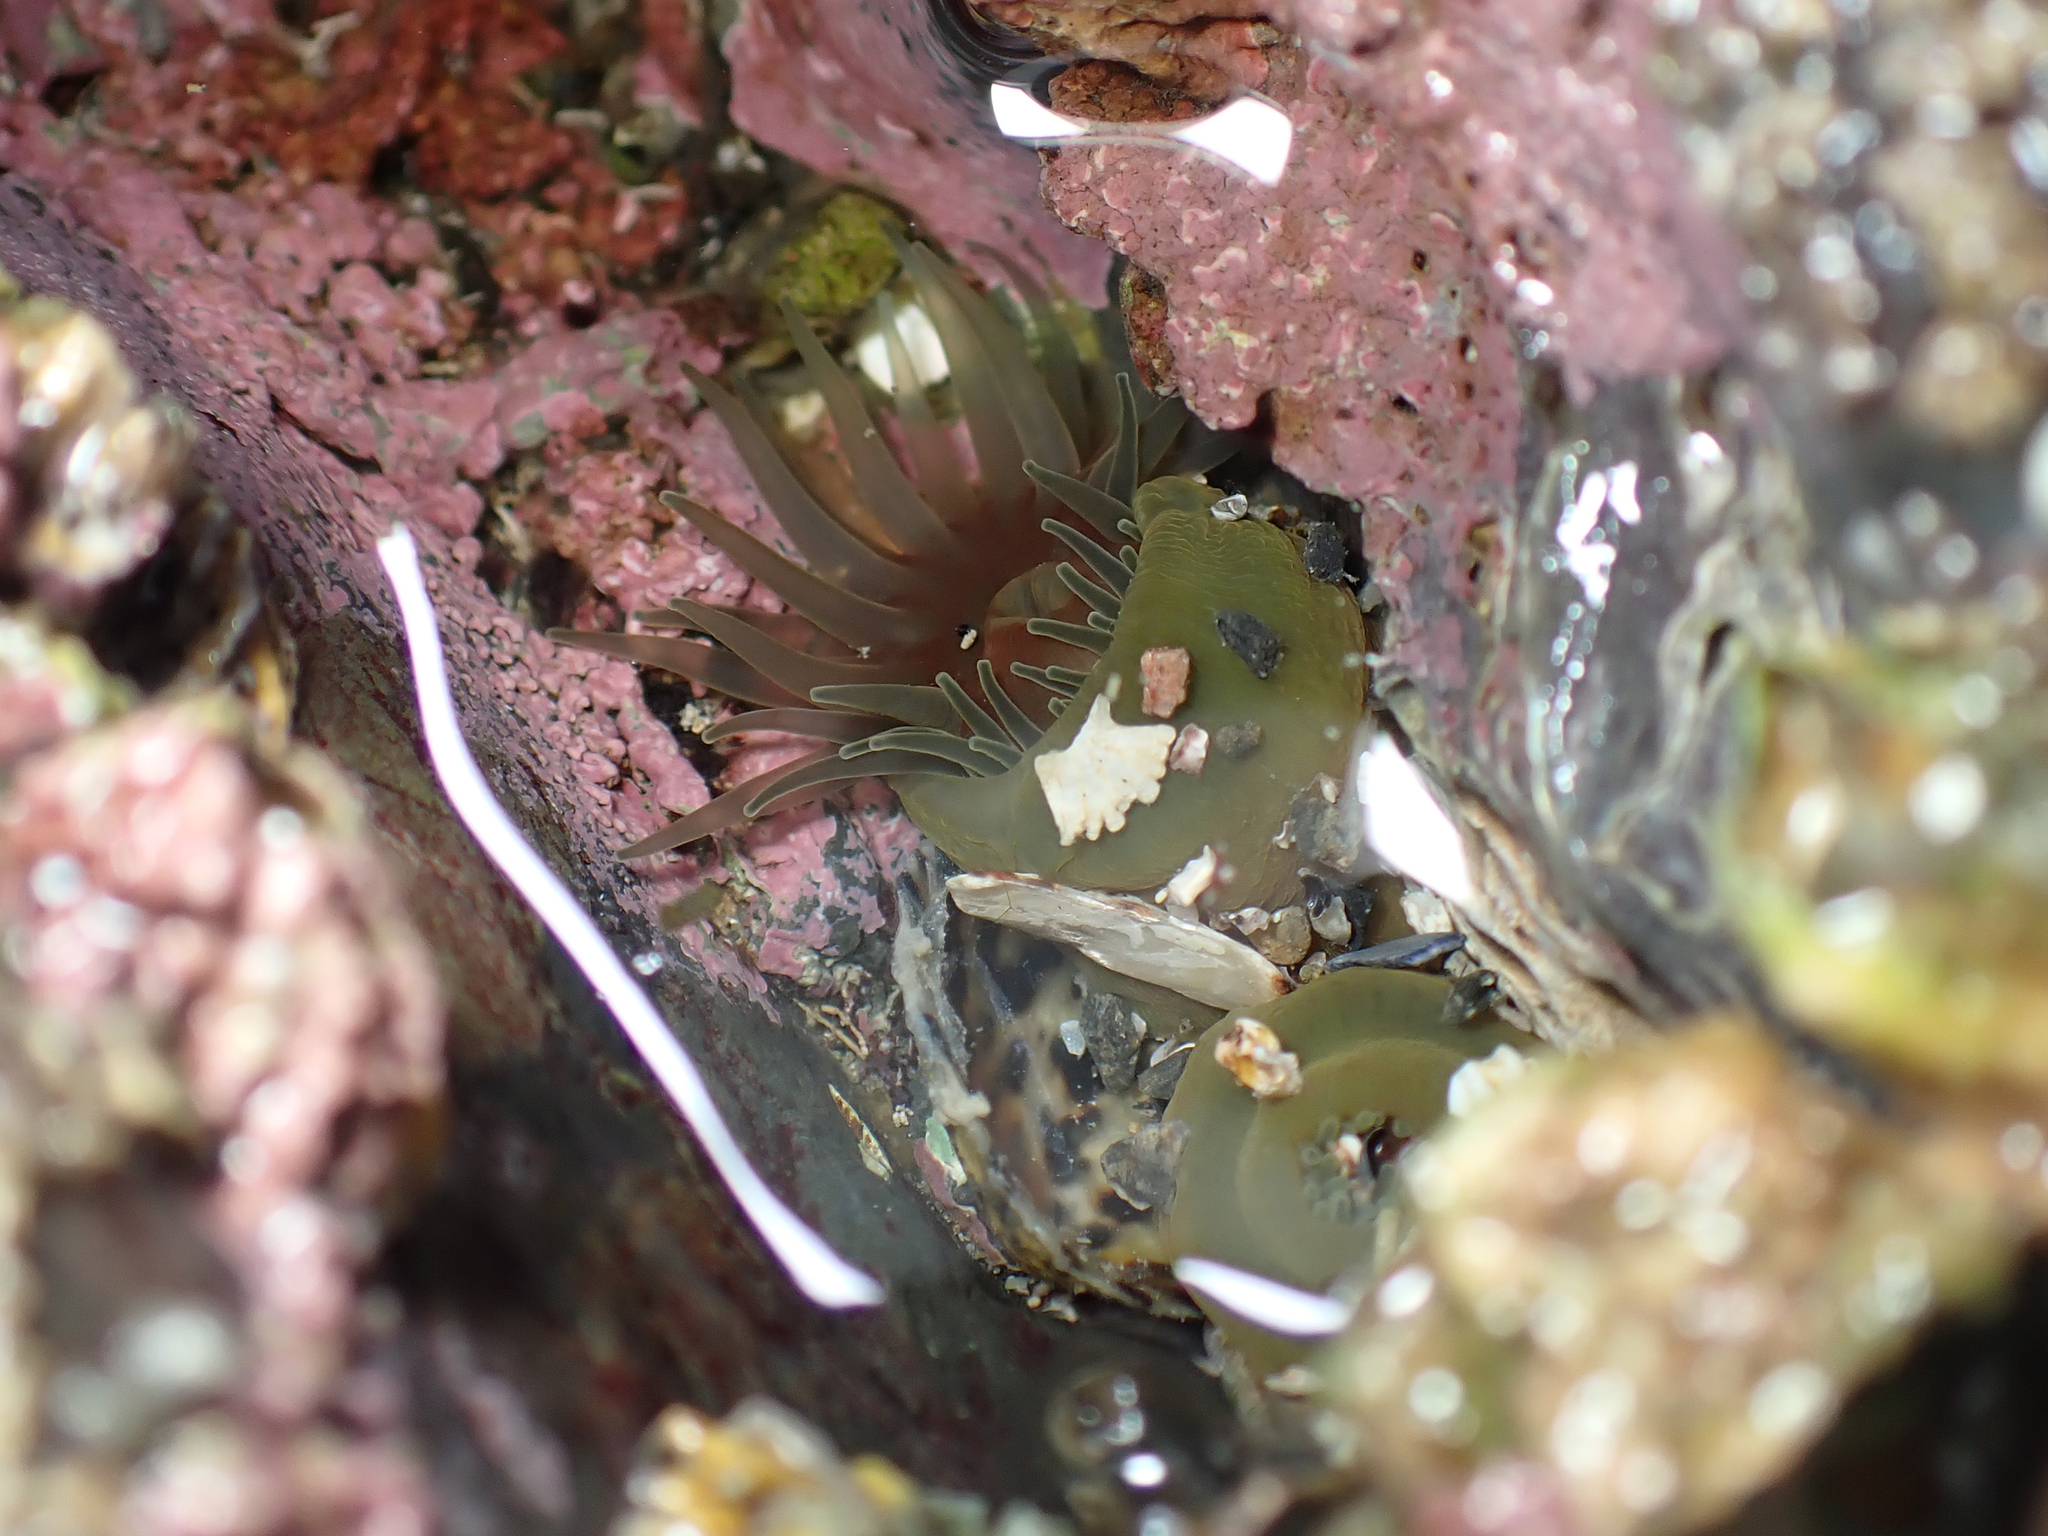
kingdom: Animalia
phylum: Cnidaria
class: Anthozoa
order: Actiniaria
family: Actiniidae
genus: Isactinia
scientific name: Isactinia olivacea
